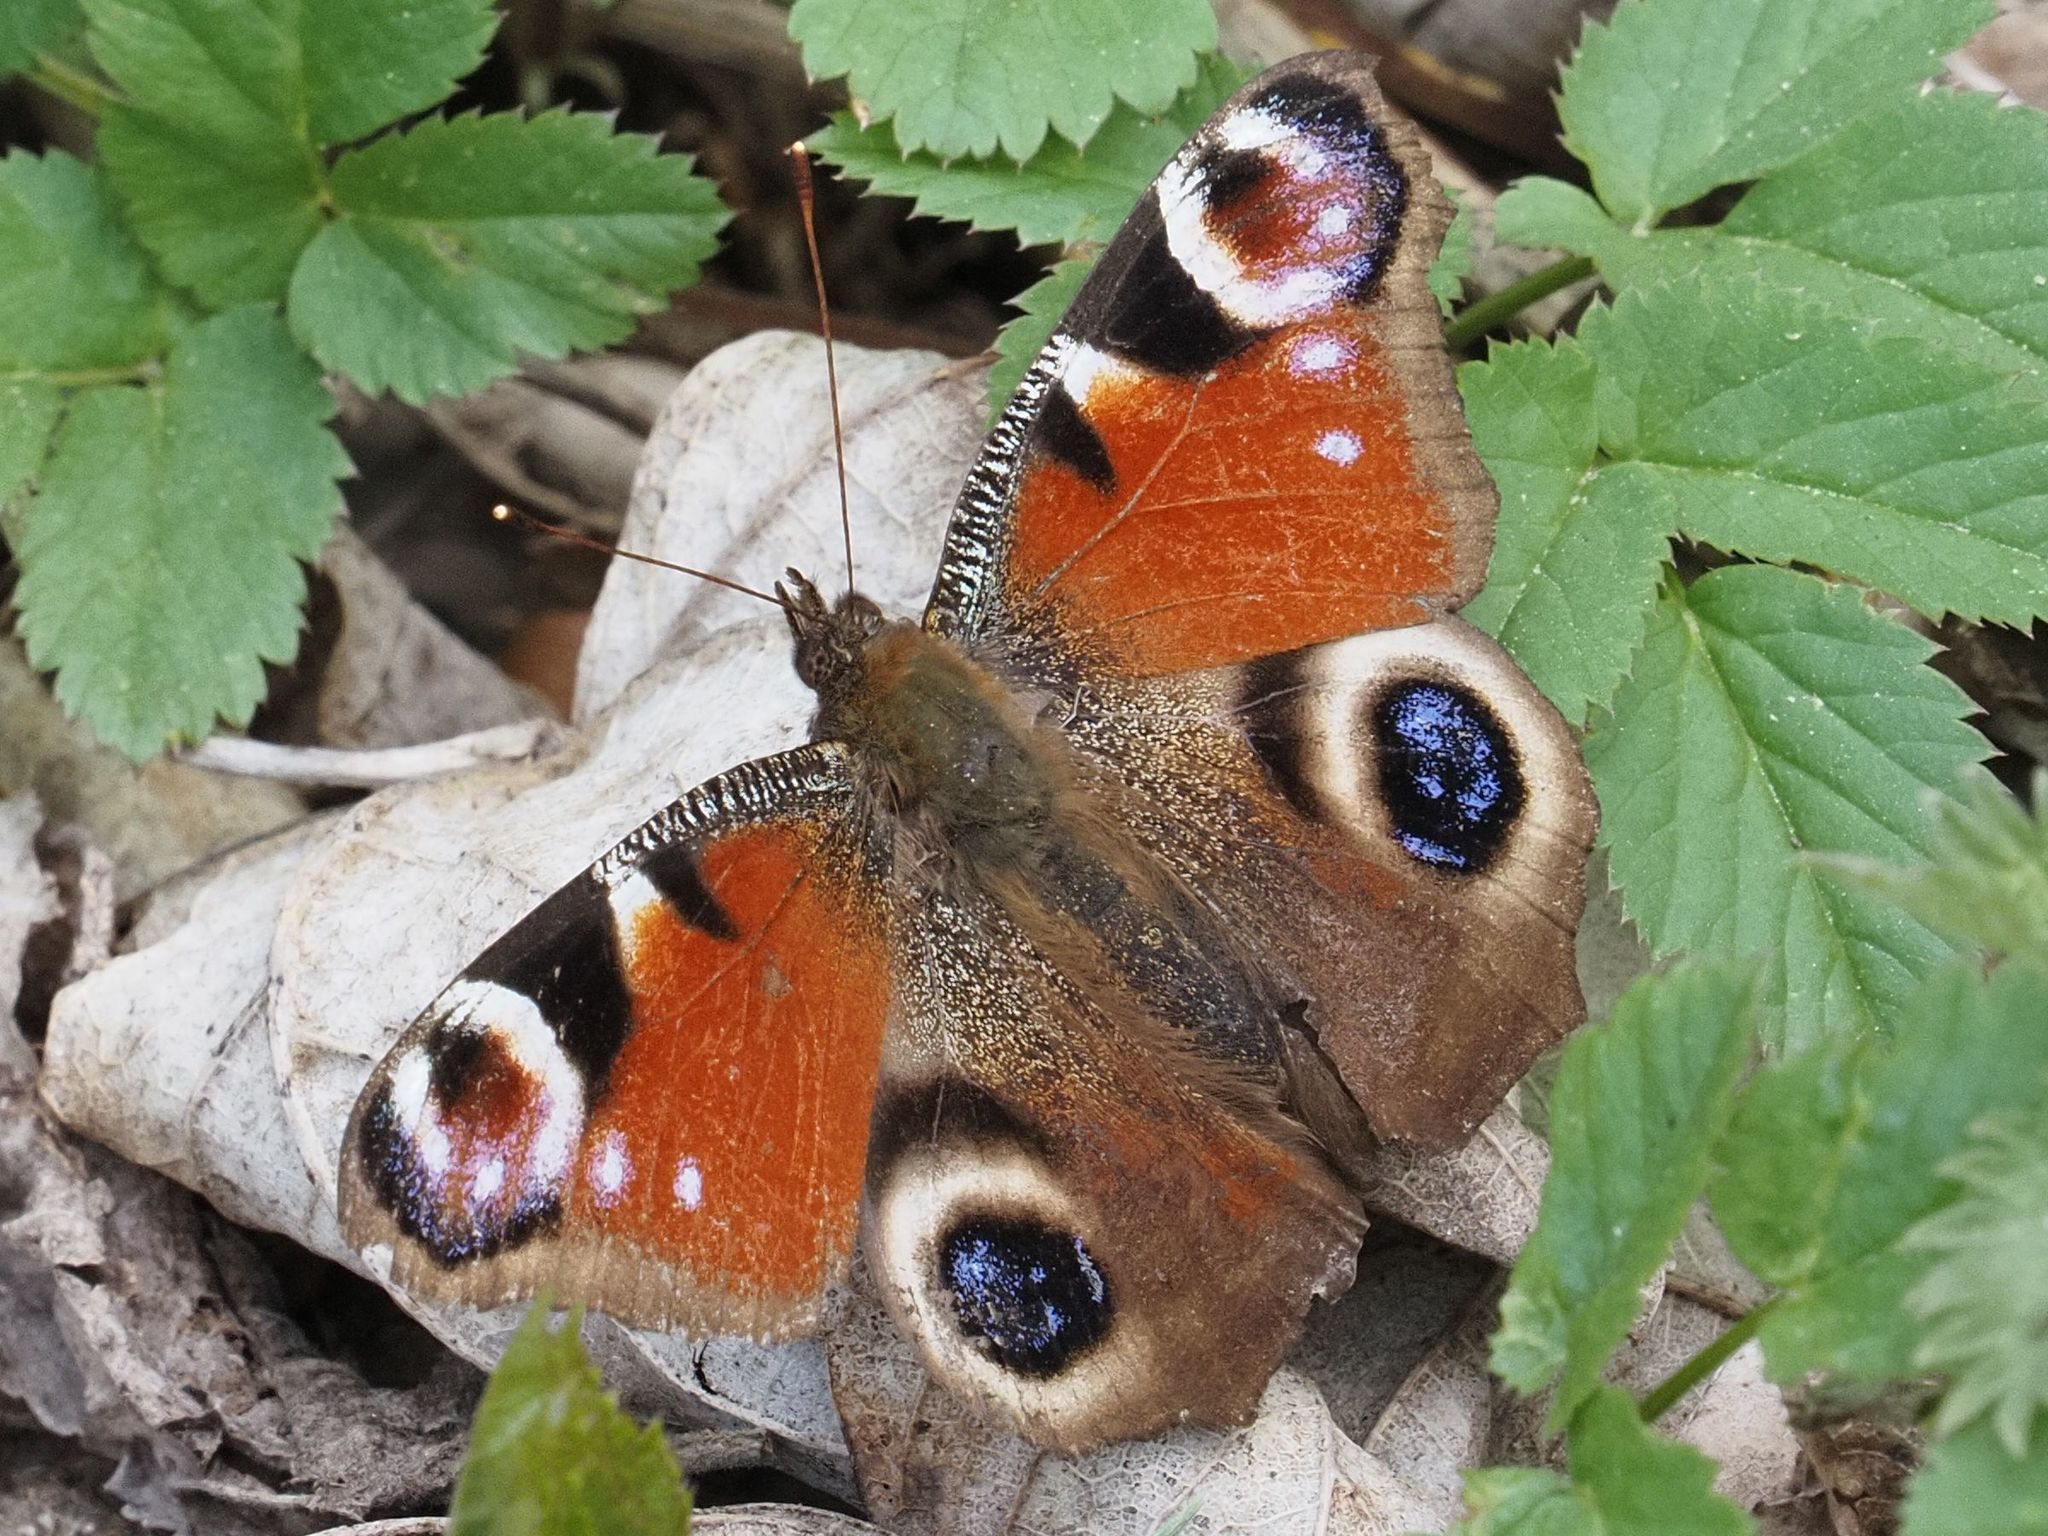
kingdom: Animalia
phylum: Arthropoda
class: Insecta
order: Lepidoptera
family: Nymphalidae
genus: Aglais
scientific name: Aglais io
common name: Peacock
